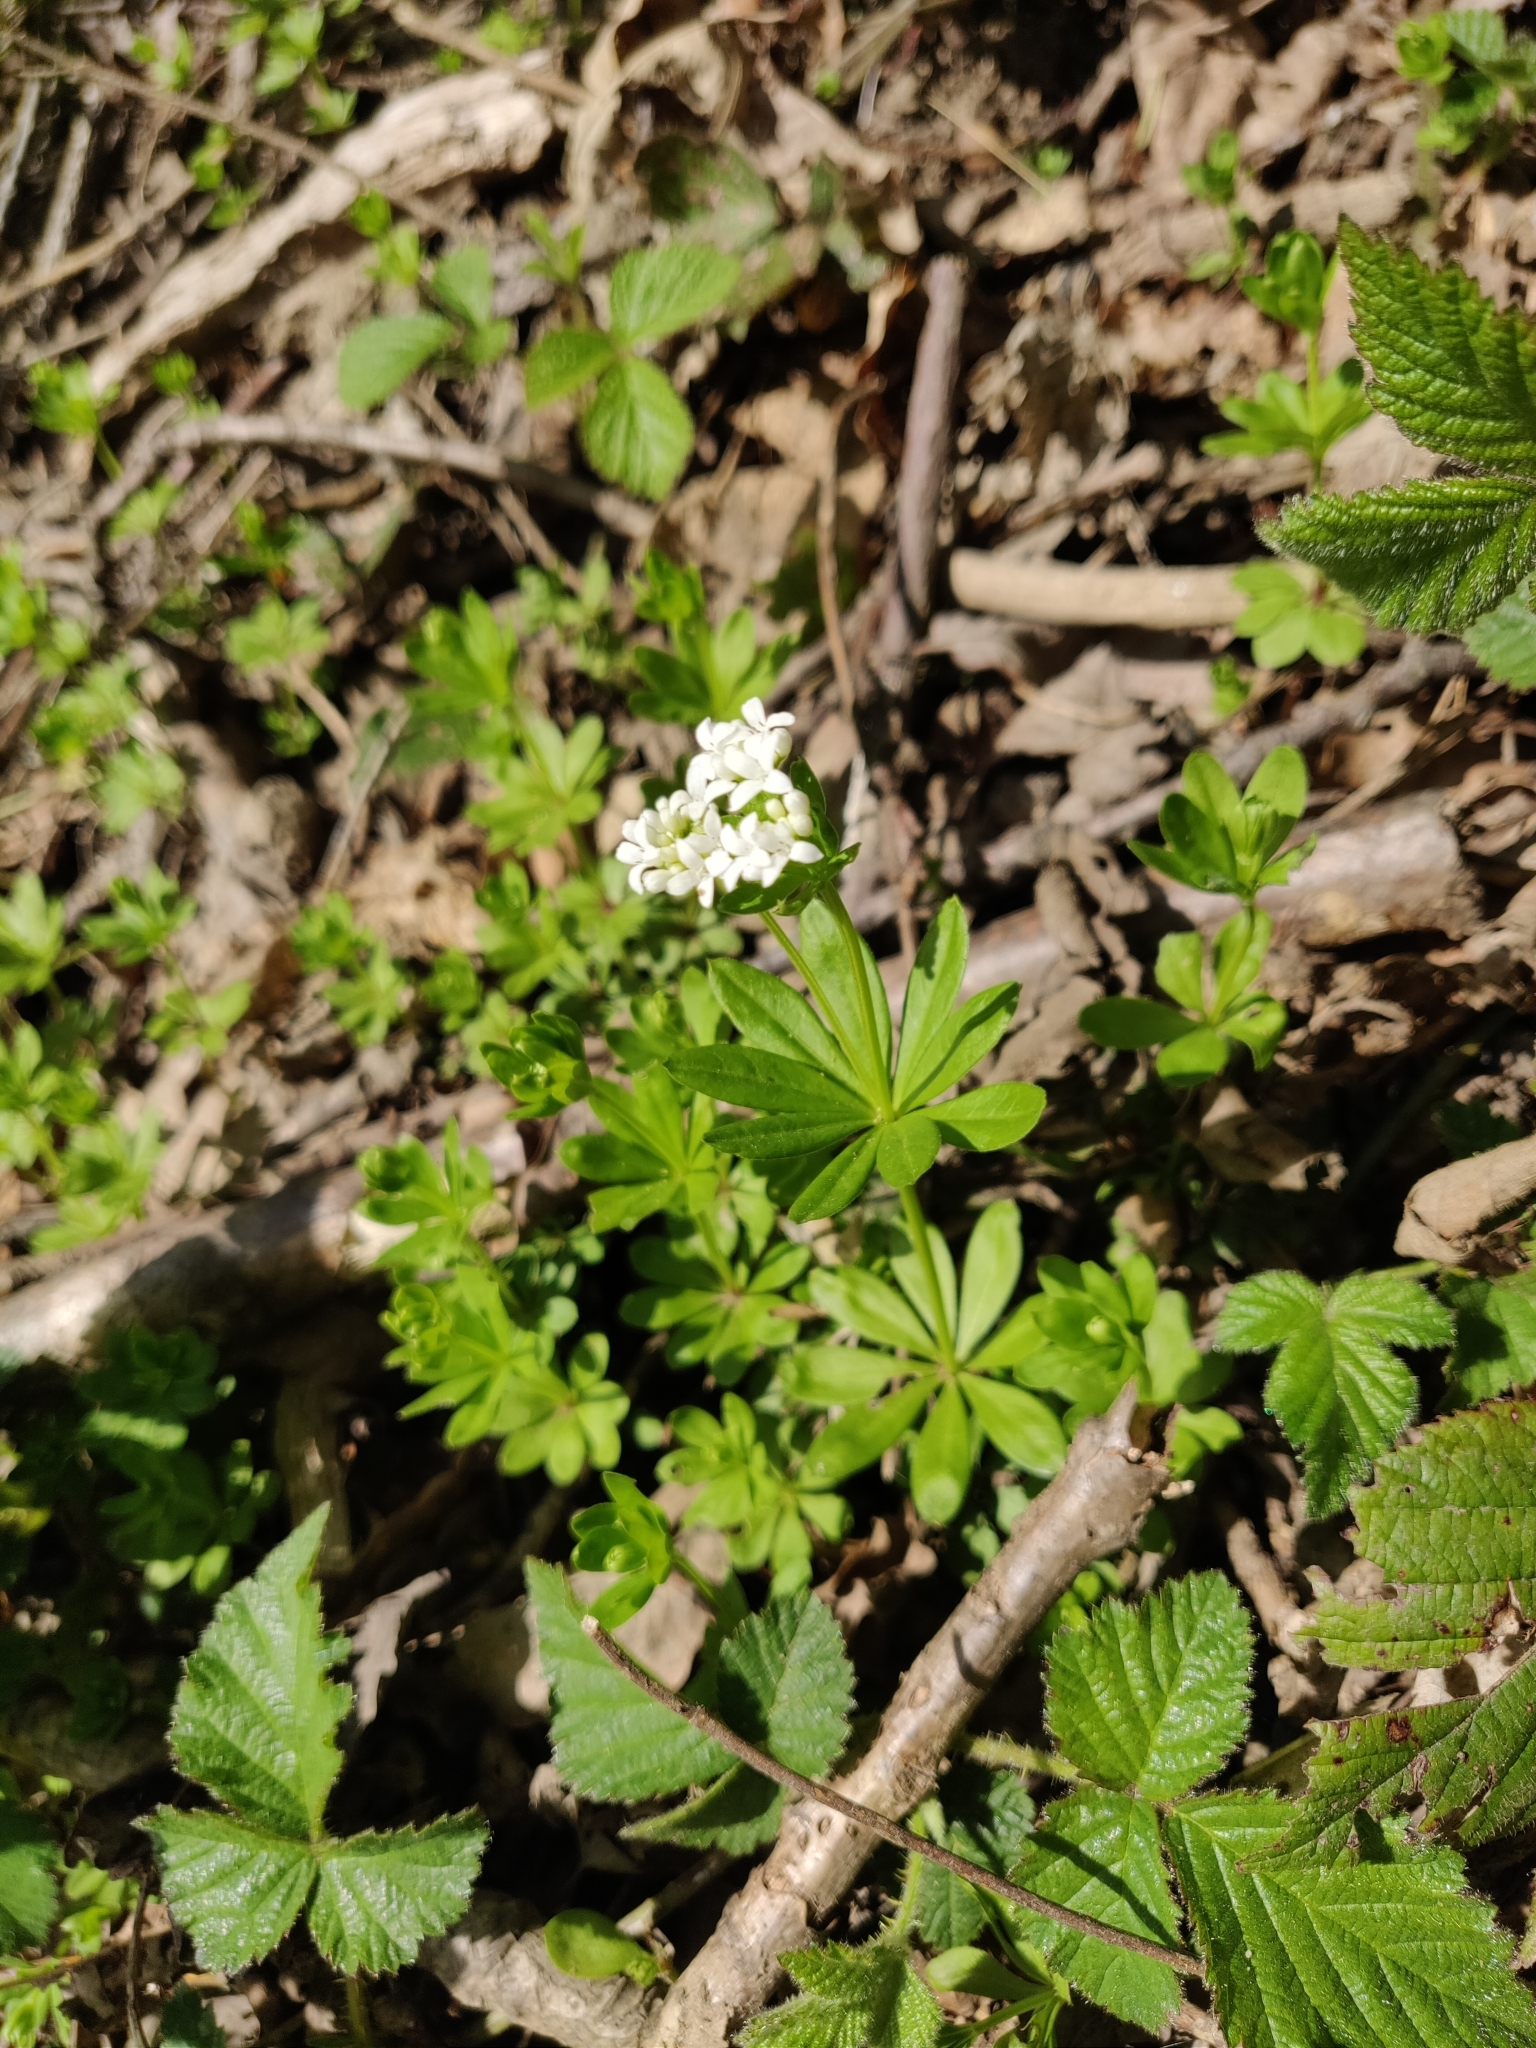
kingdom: Plantae
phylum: Tracheophyta
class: Magnoliopsida
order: Gentianales
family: Rubiaceae
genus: Galium
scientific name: Galium odoratum
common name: Sweet woodruff
